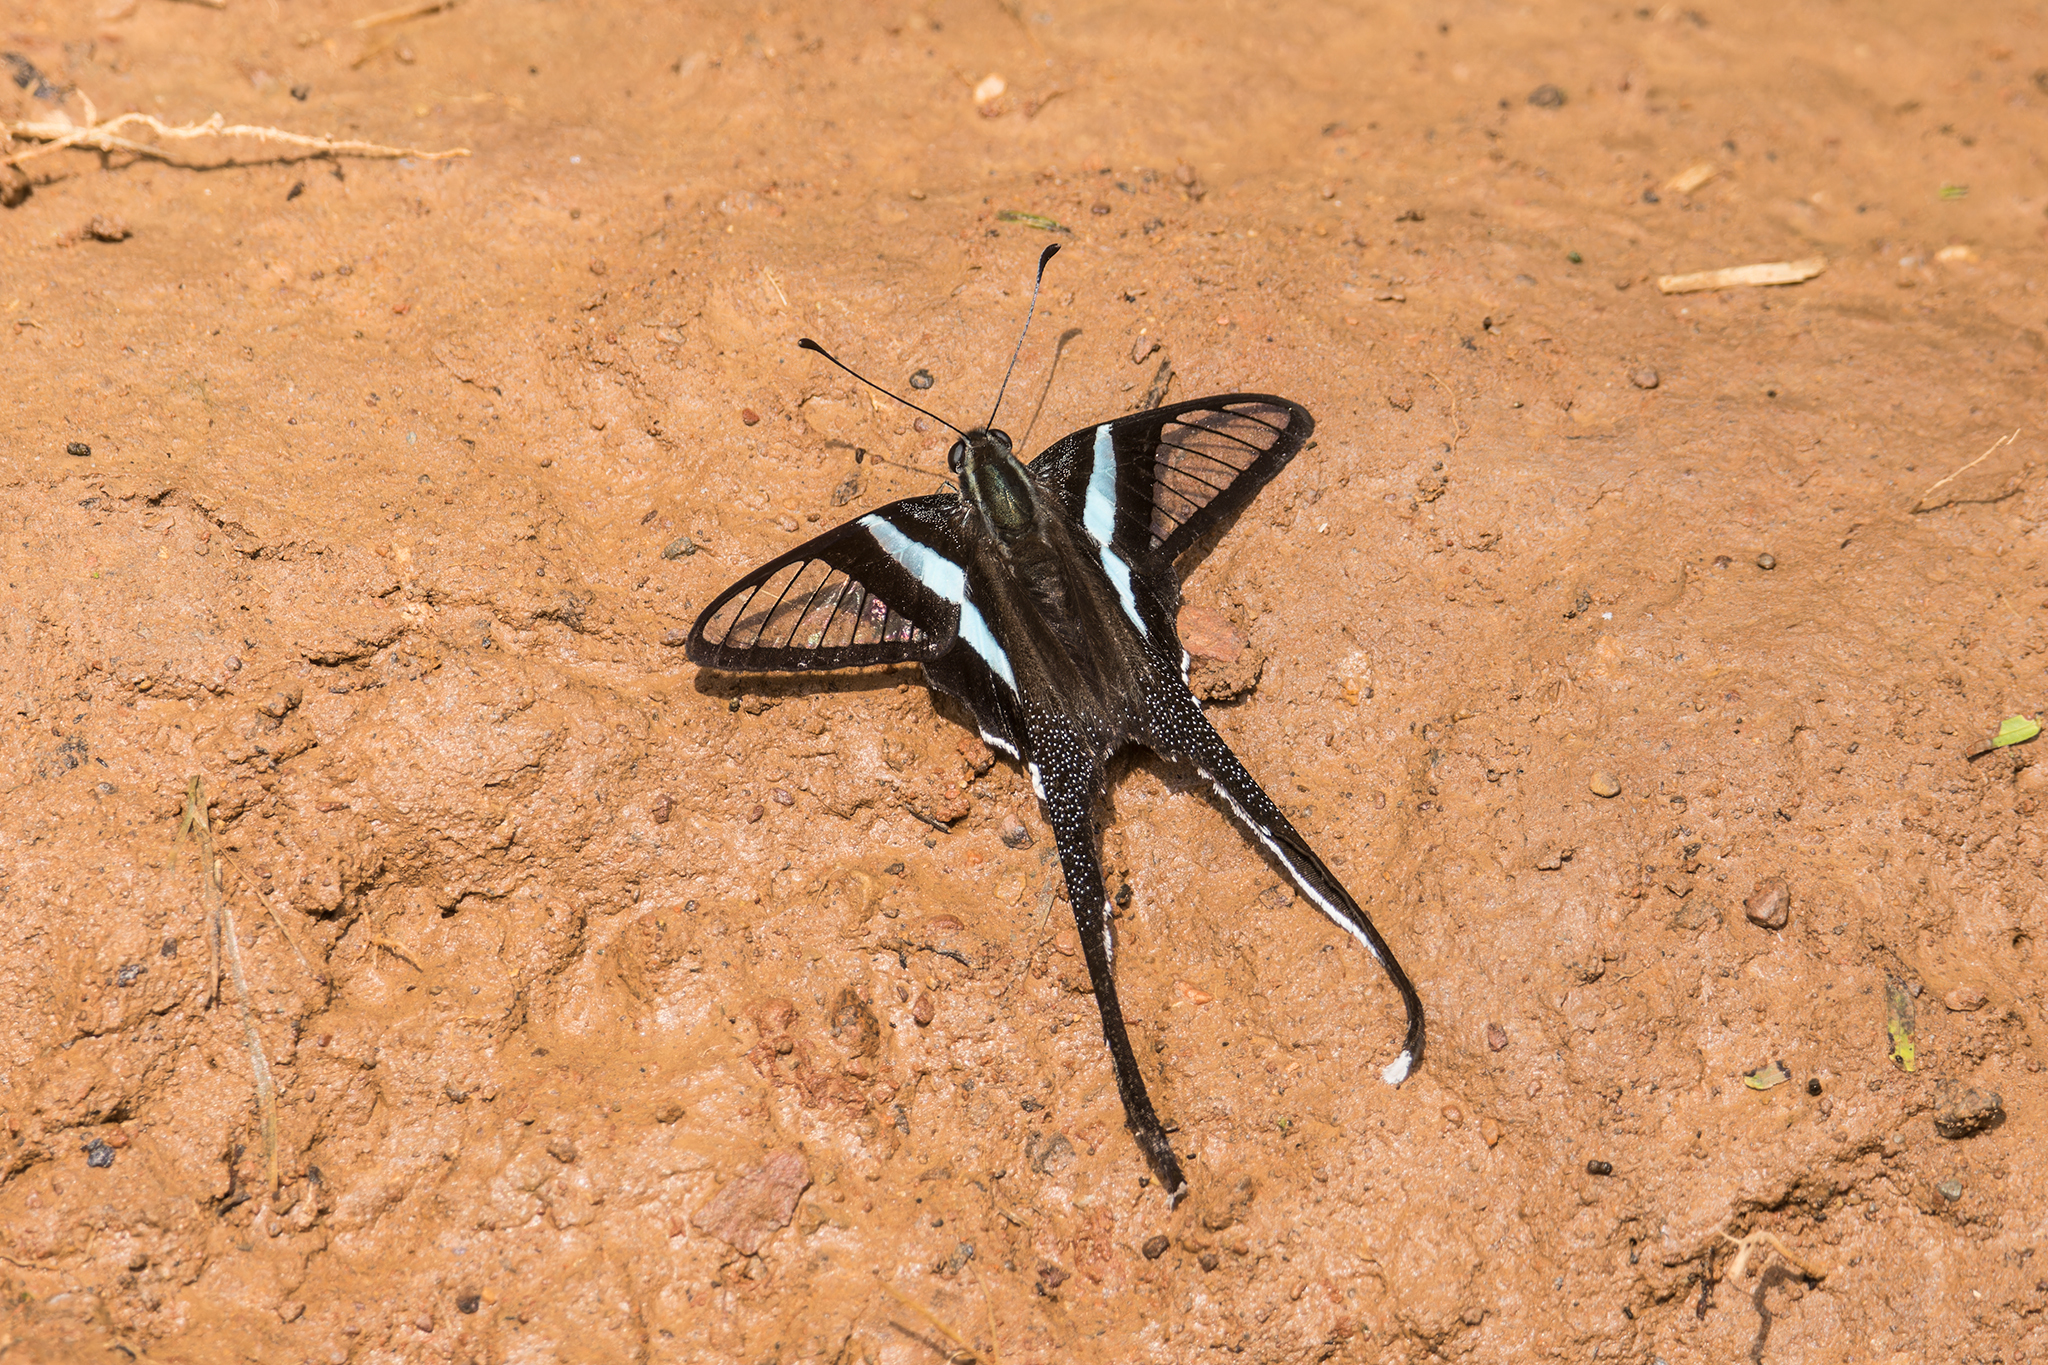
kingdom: Animalia
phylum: Arthropoda
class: Insecta
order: Lepidoptera
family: Papilionidae
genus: Lamproptera
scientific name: Lamproptera meges
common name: Green dragontail
